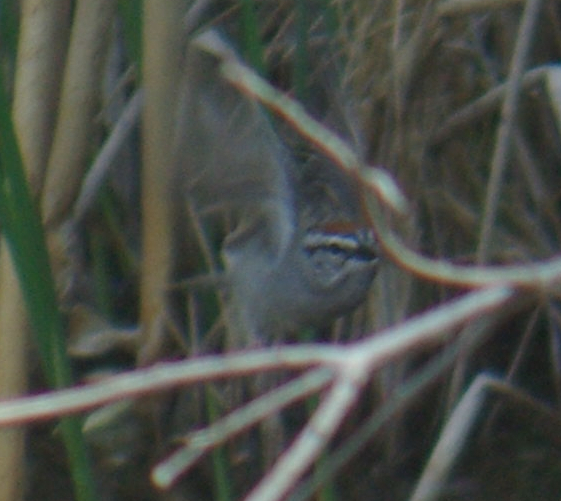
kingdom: Animalia
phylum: Chordata
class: Aves
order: Passeriformes
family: Passerellidae
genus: Spizella
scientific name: Spizella passerina
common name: Chipping sparrow
